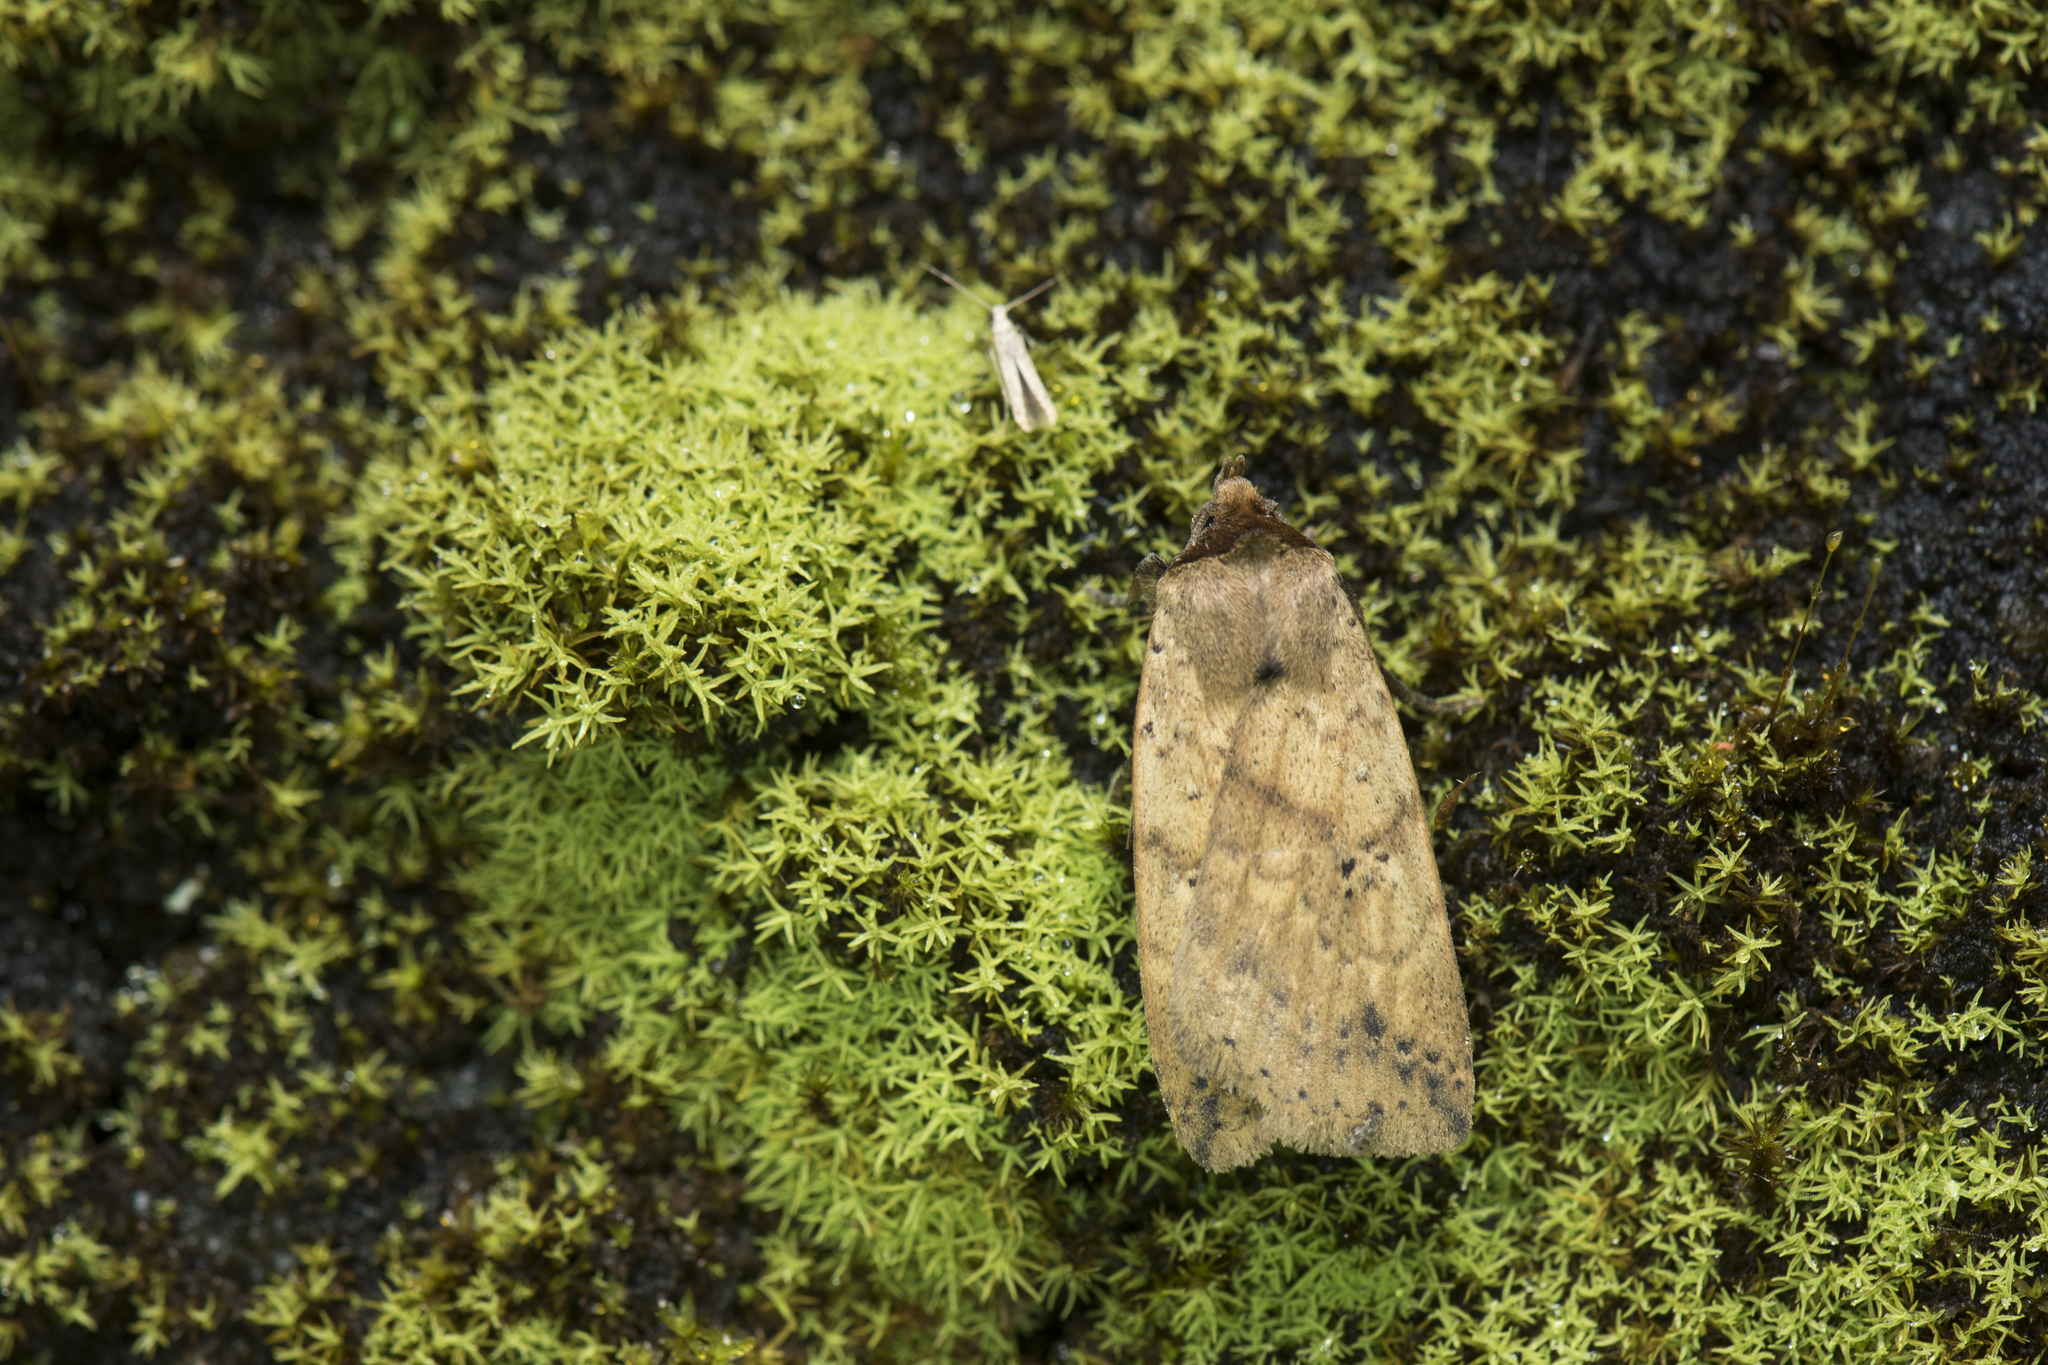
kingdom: Animalia
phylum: Arthropoda
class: Insecta
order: Lepidoptera
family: Noctuidae
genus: Xylostola
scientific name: Xylostola indistincta
